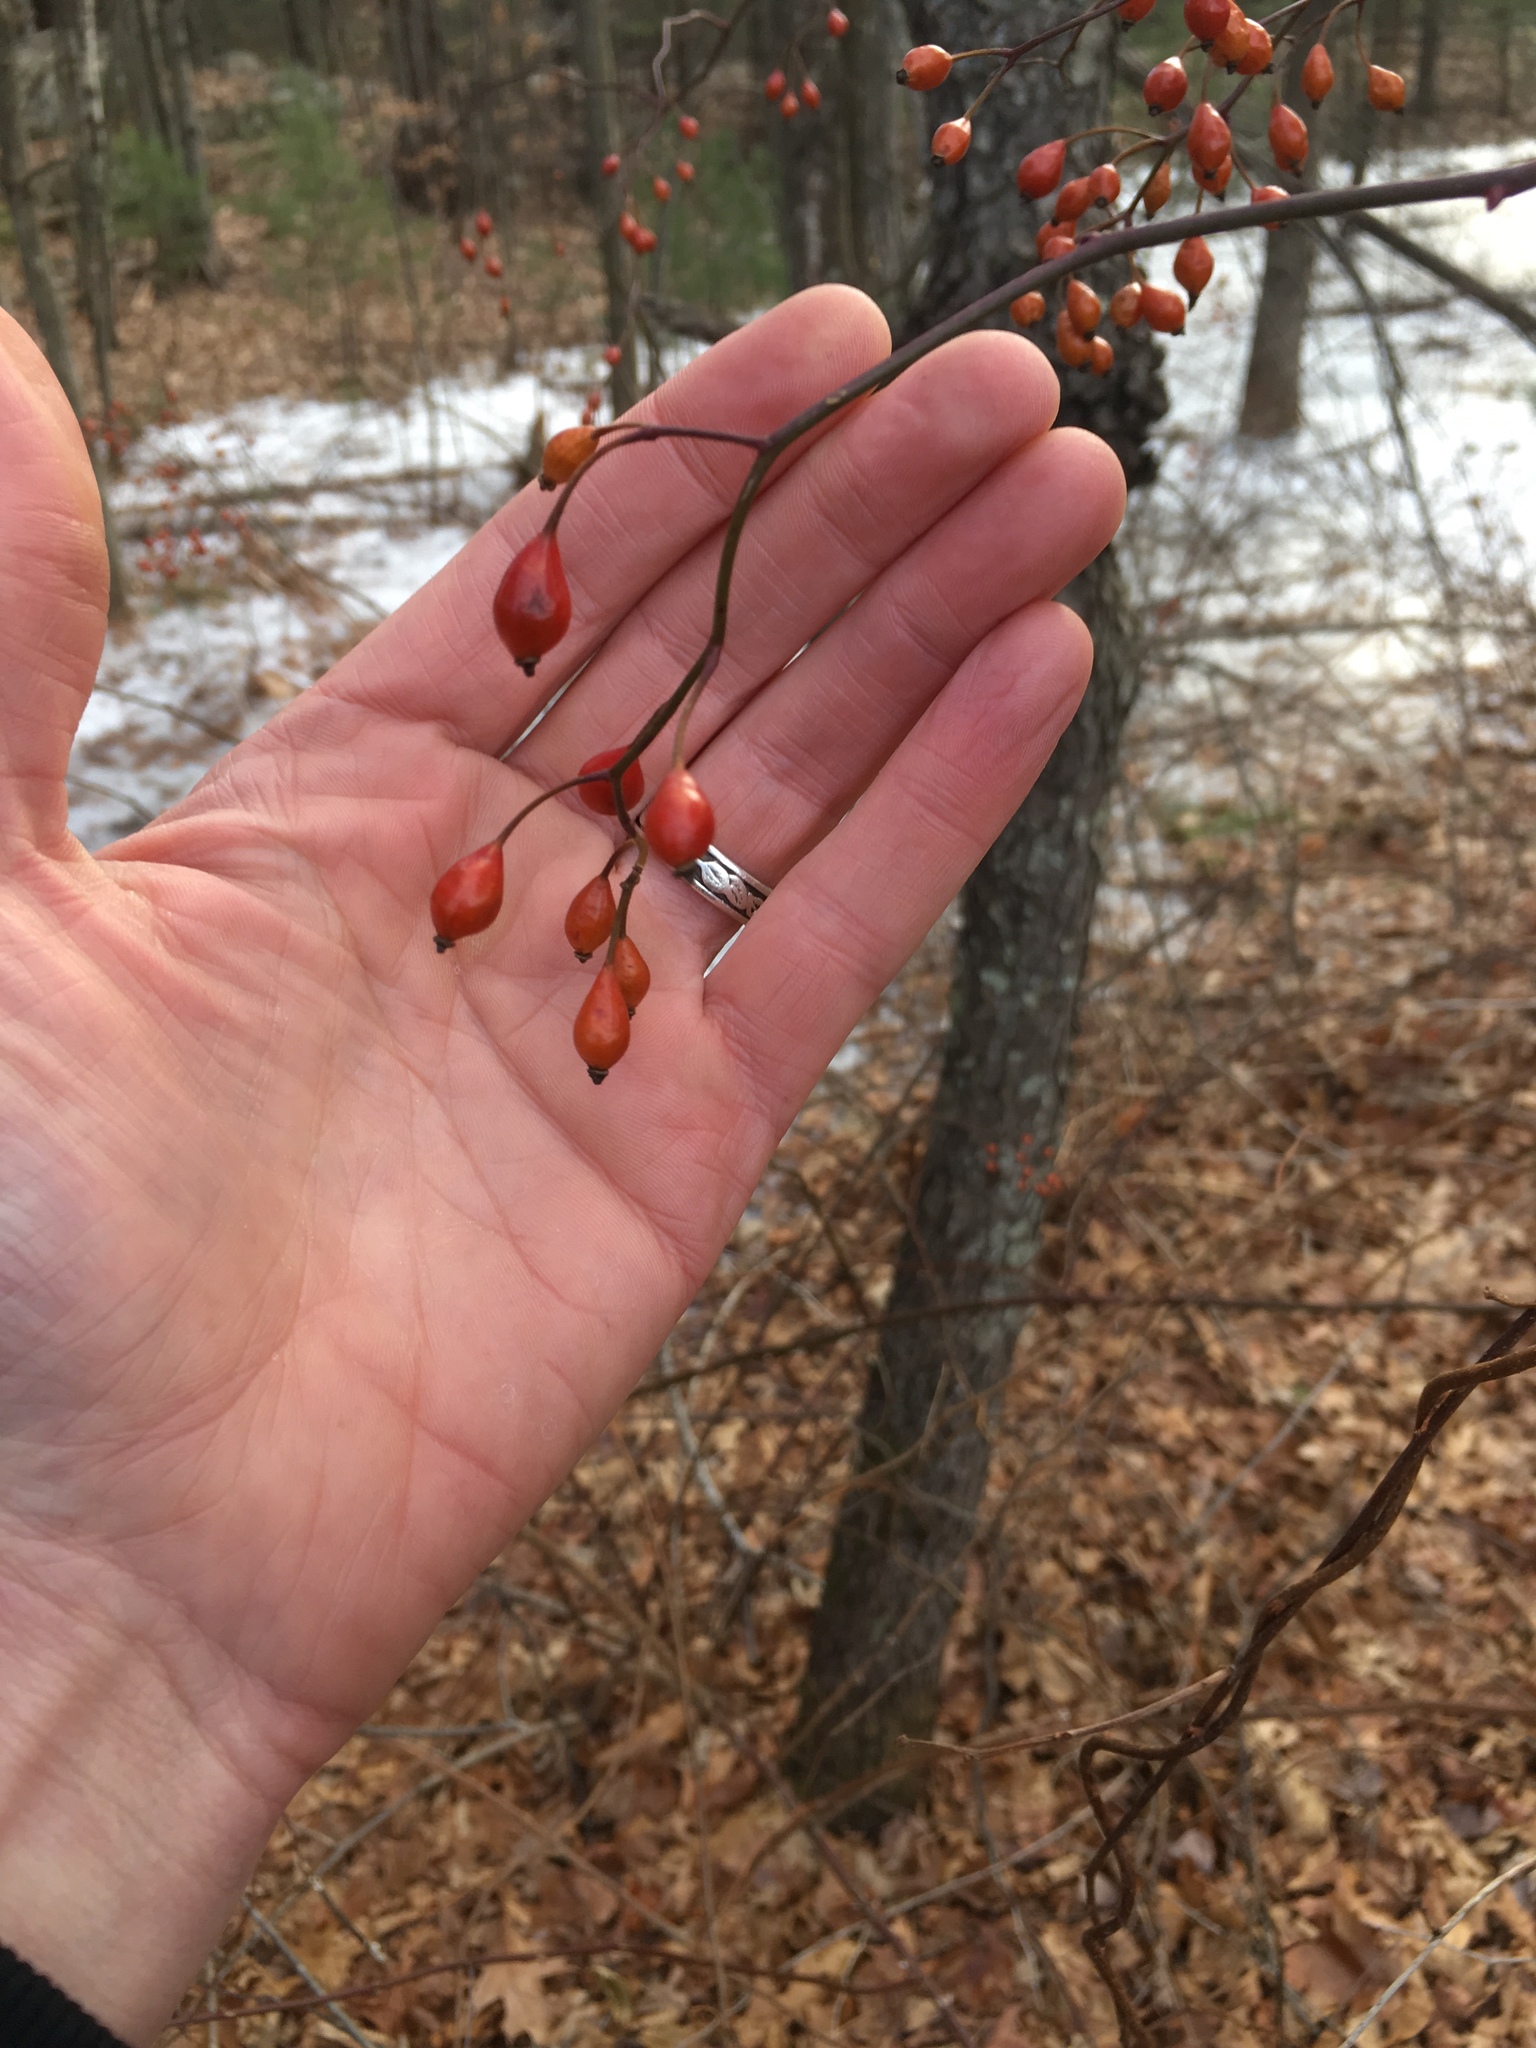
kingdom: Plantae
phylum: Tracheophyta
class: Magnoliopsida
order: Rosales
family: Rosaceae
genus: Rosa
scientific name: Rosa multiflora
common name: Multiflora rose
